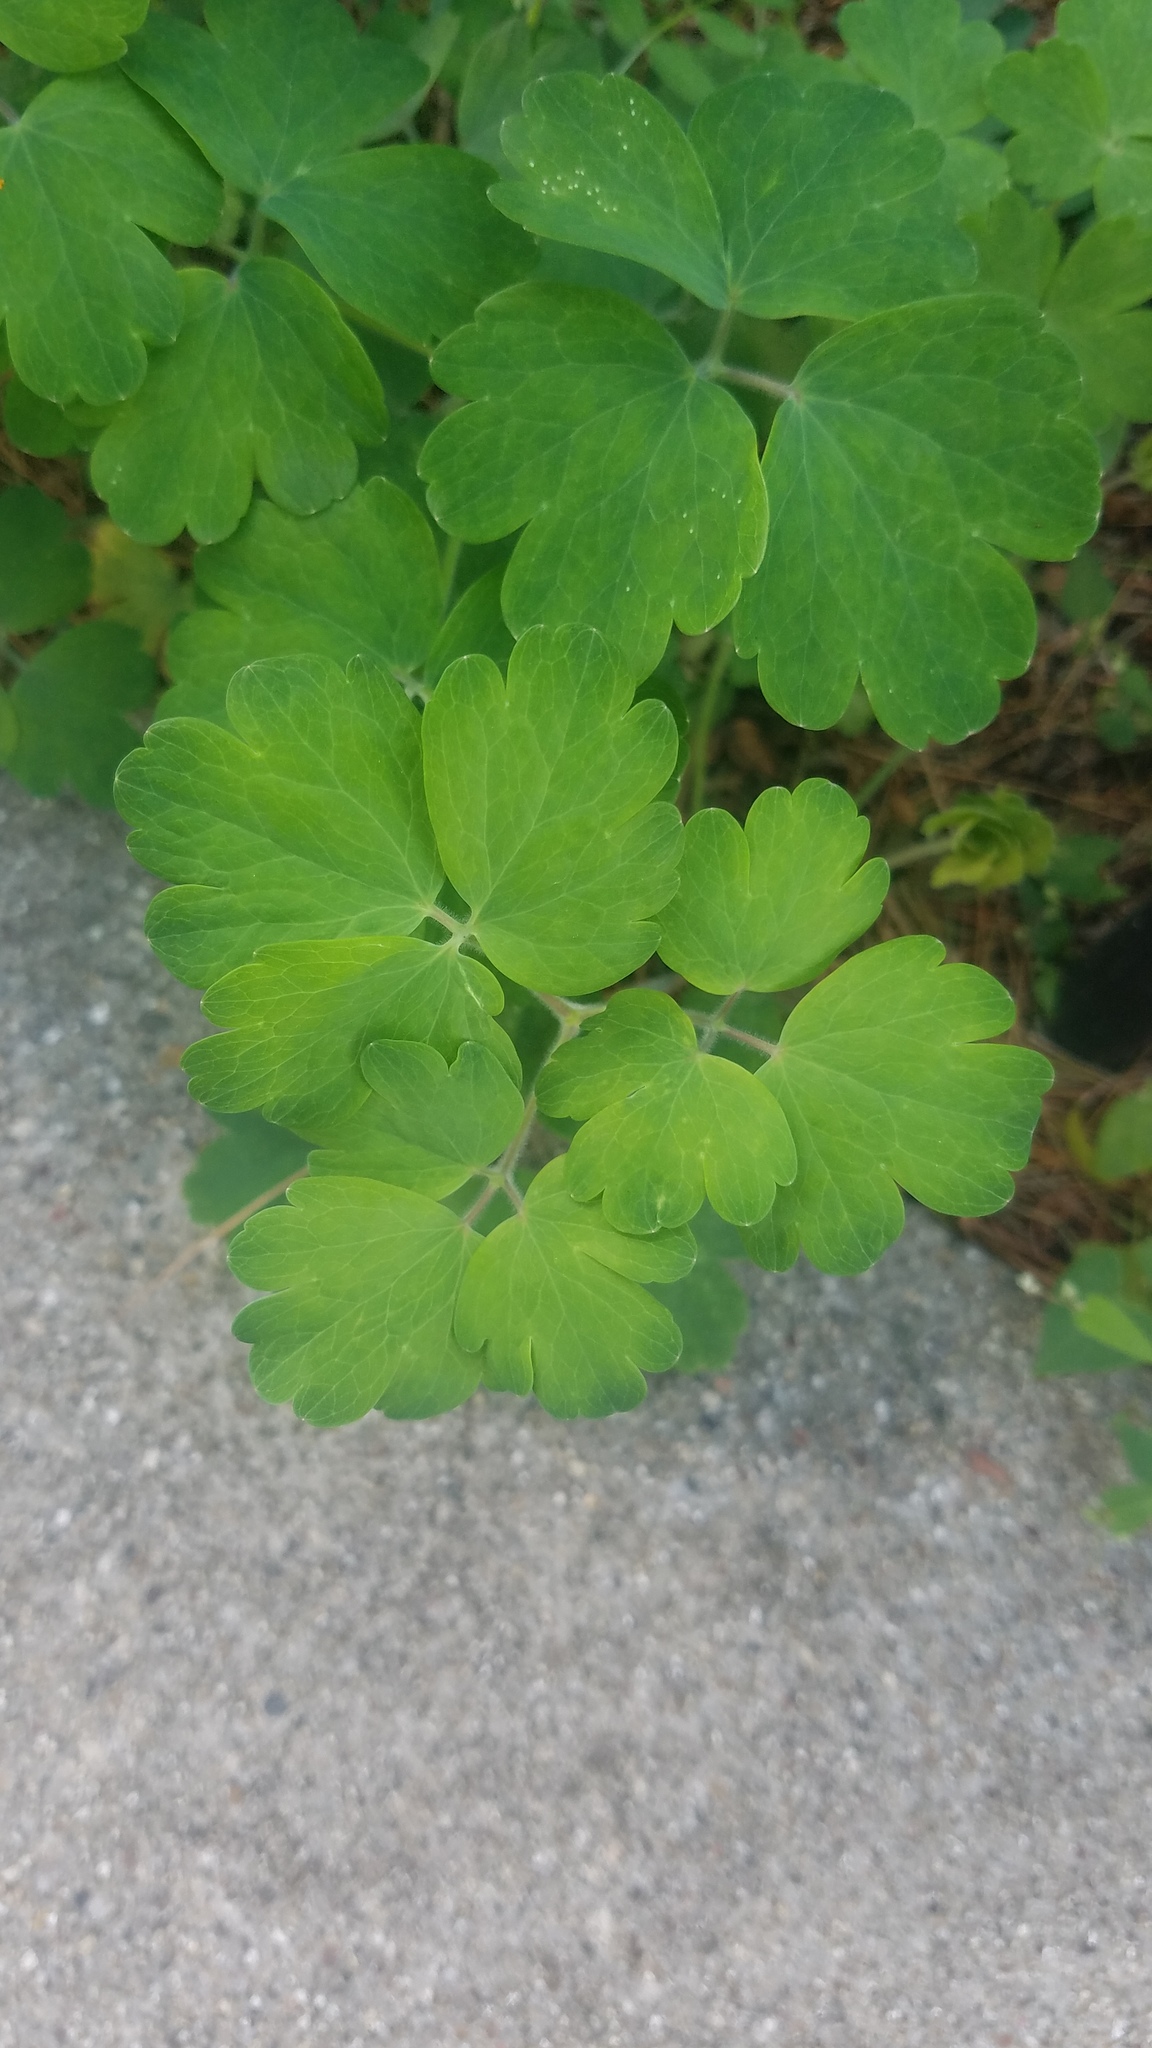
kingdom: Plantae
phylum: Tracheophyta
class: Magnoliopsida
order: Ranunculales
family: Ranunculaceae
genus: Aquilegia
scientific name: Aquilegia canadensis
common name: American columbine
